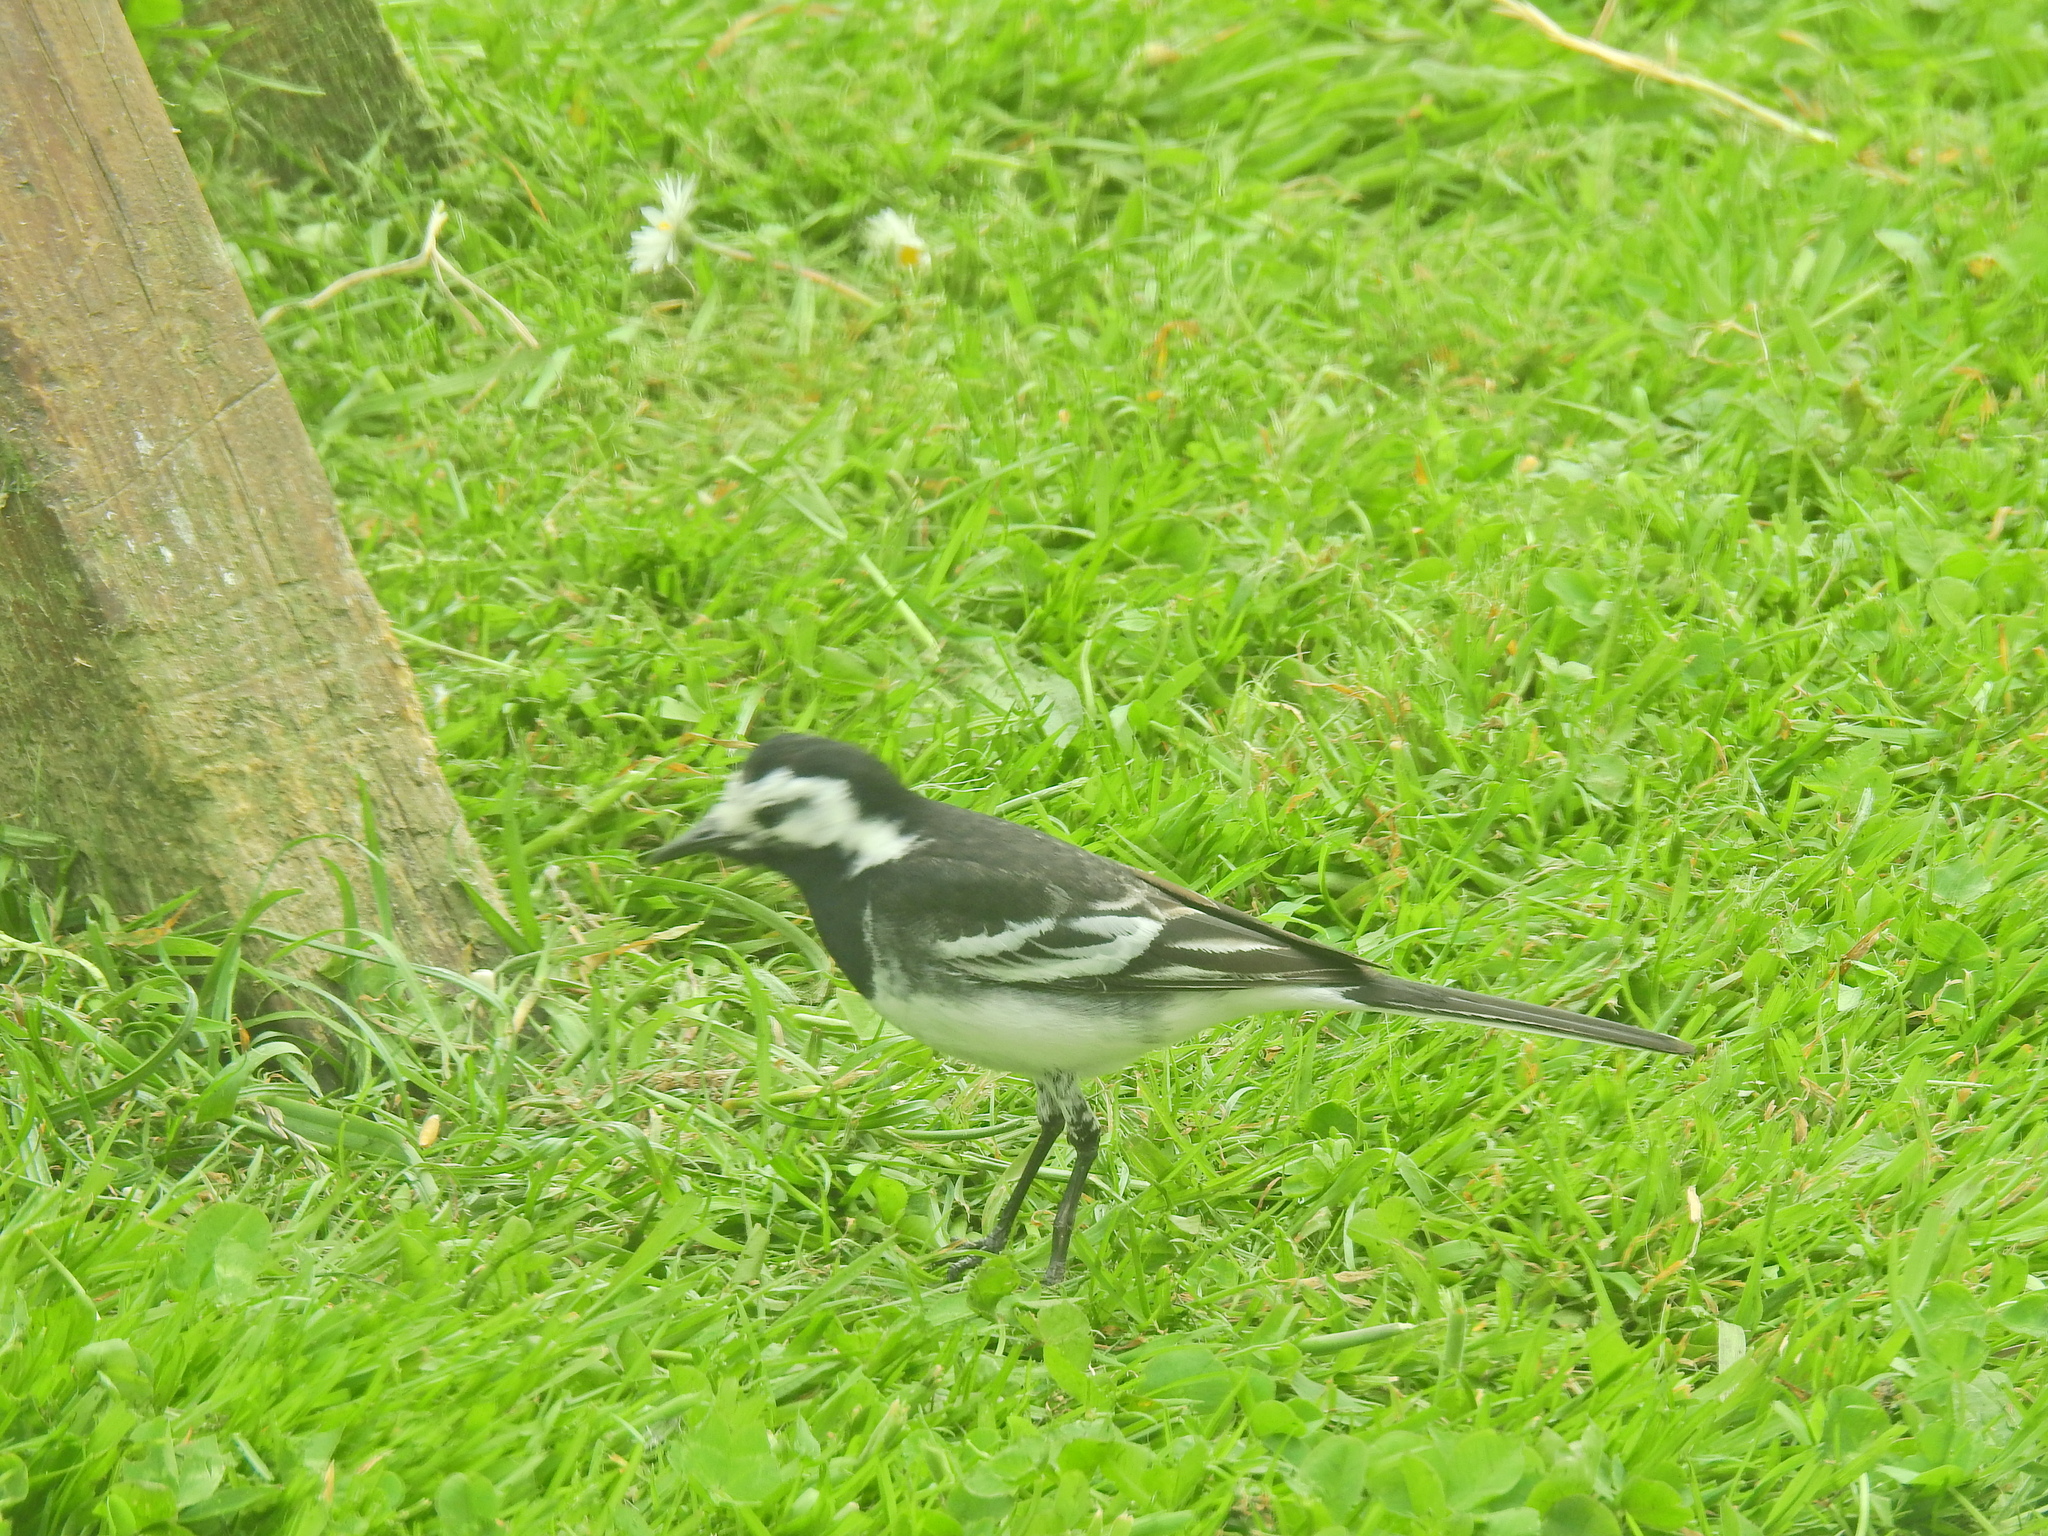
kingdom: Animalia
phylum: Chordata
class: Aves
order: Passeriformes
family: Motacillidae
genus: Motacilla
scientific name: Motacilla alba
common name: White wagtail
